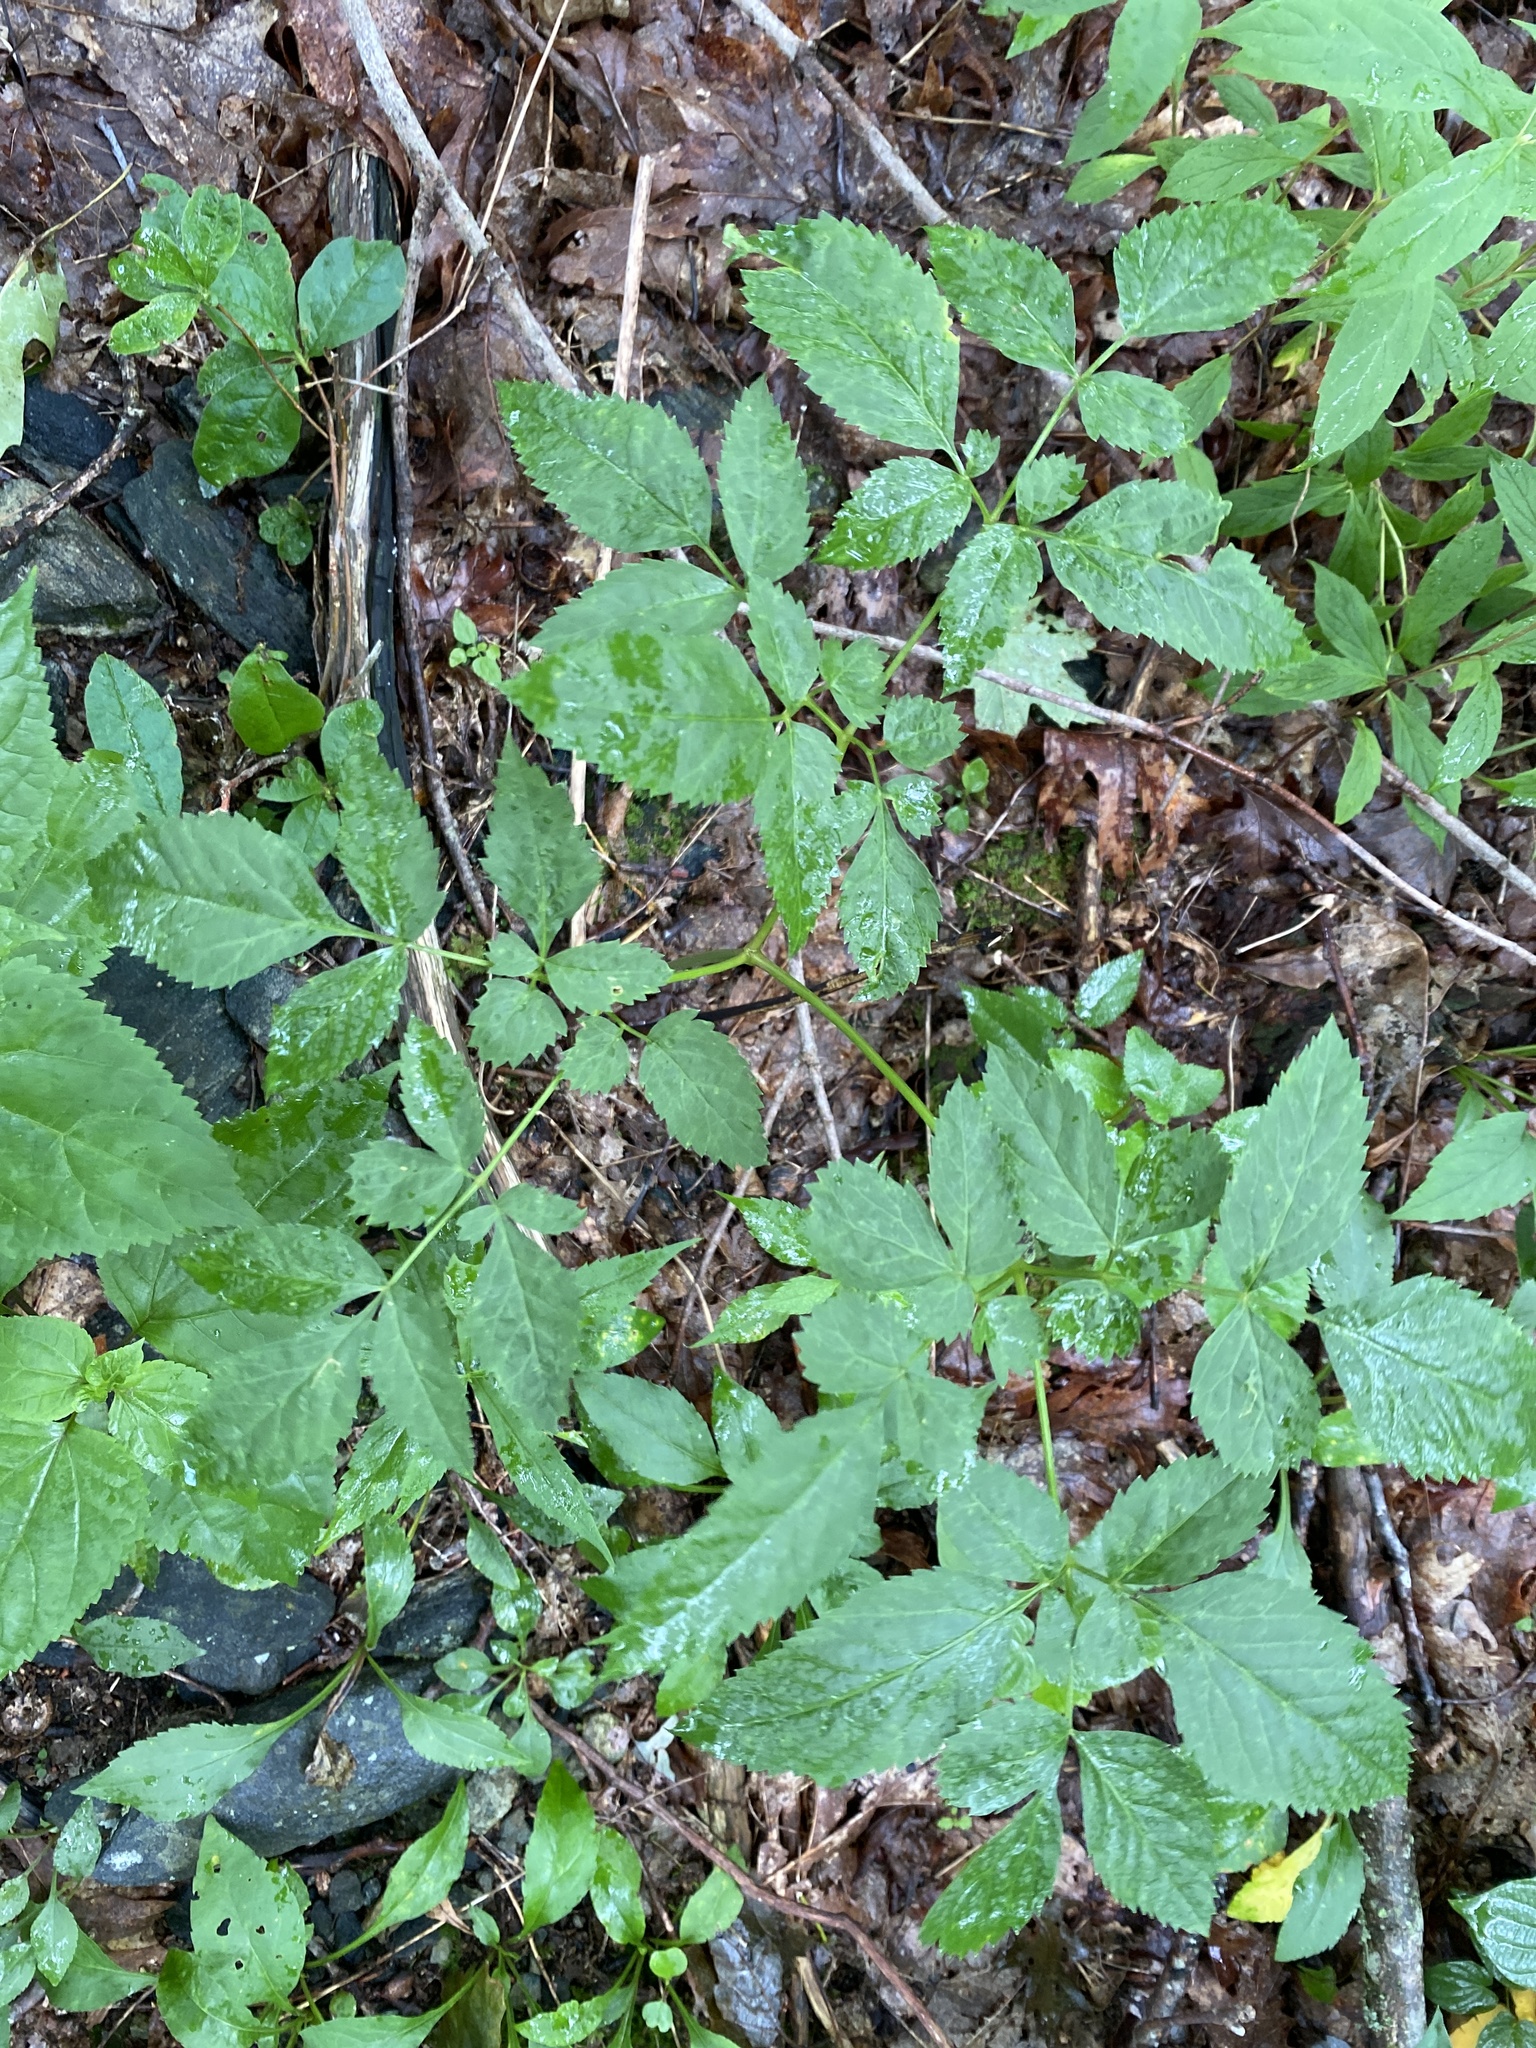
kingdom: Plantae
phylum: Tracheophyta
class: Magnoliopsida
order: Apiales
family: Apiaceae
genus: Ligusticum
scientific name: Ligusticum canadense
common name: American lovage
